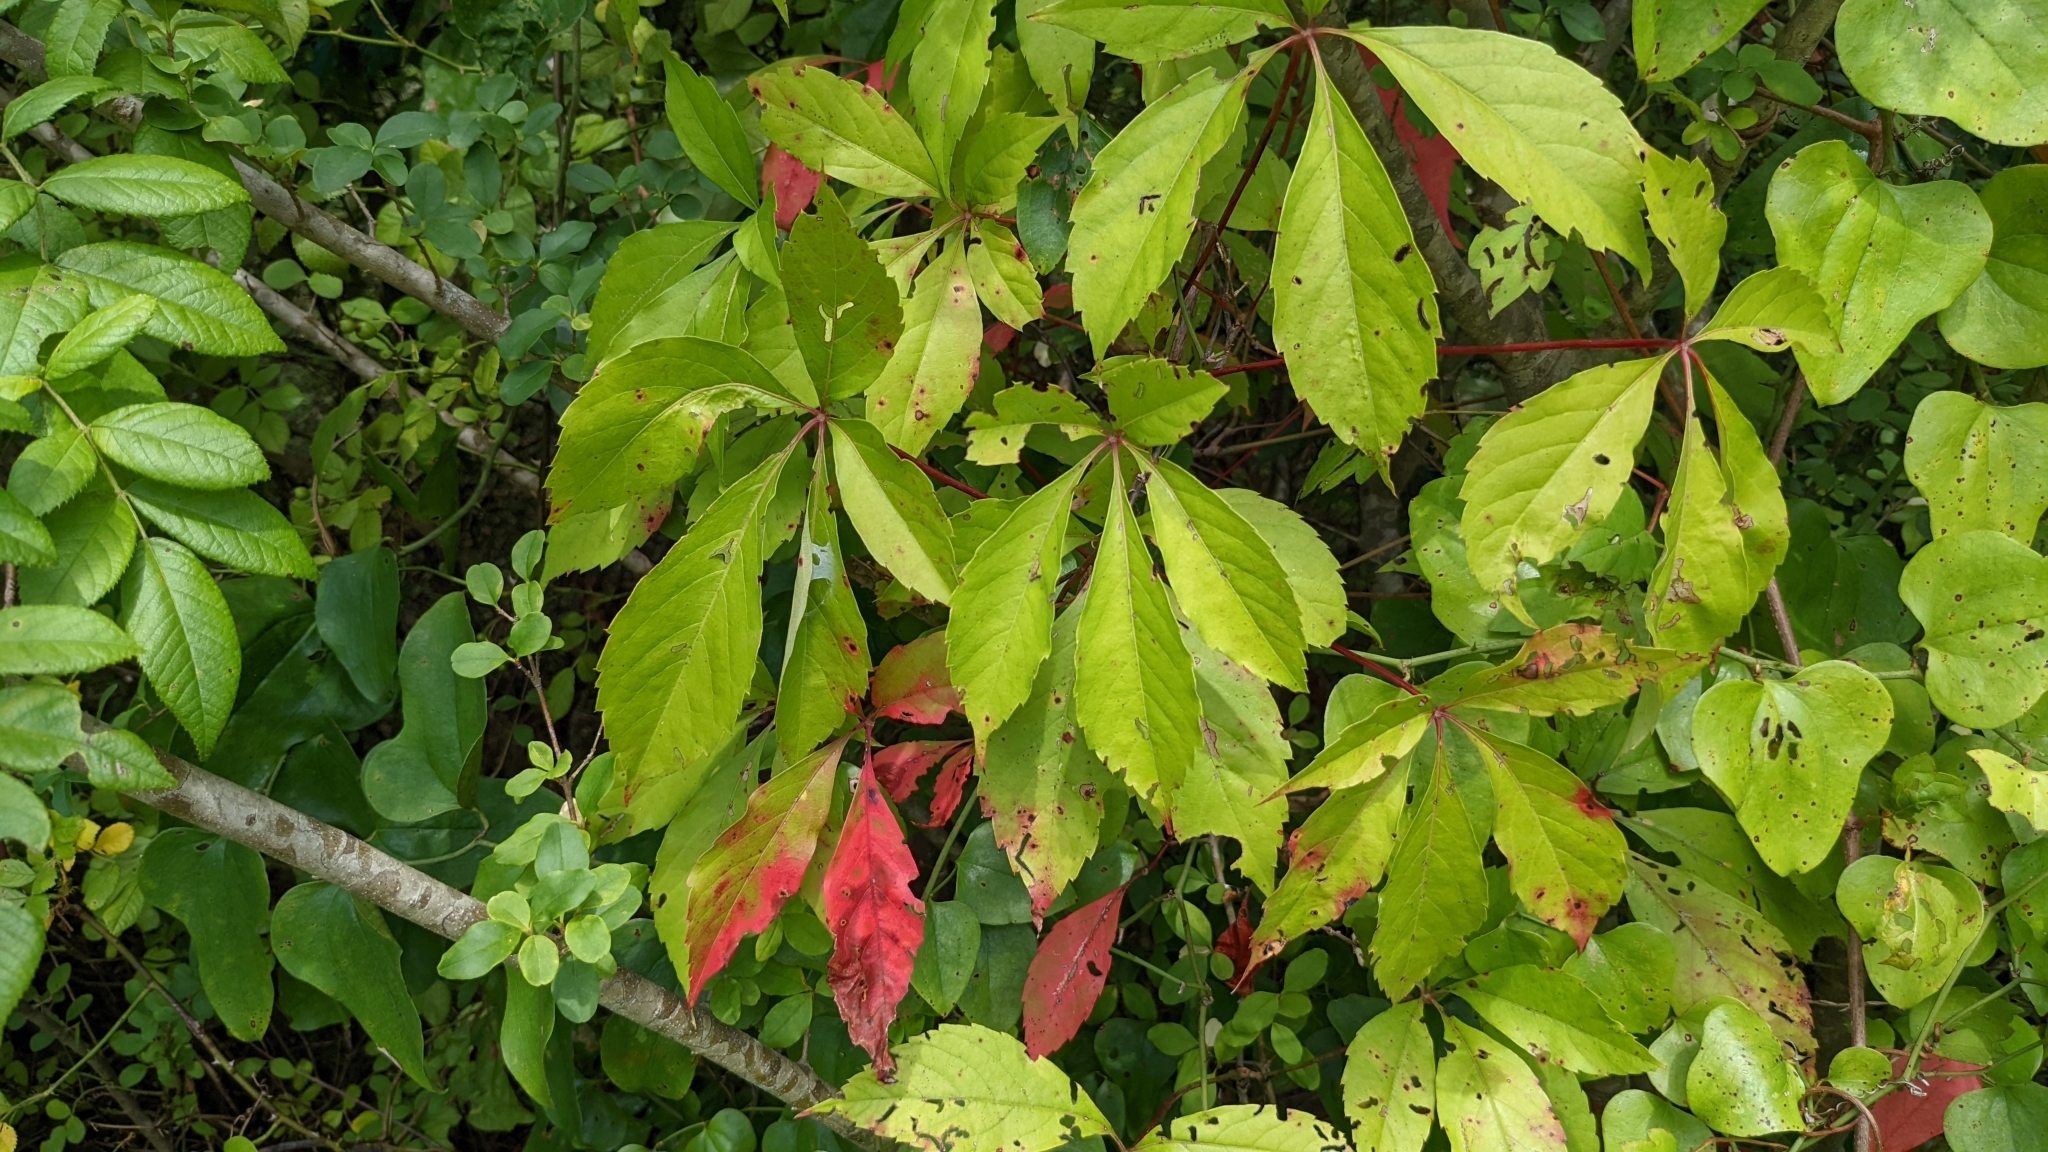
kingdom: Plantae
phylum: Tracheophyta
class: Magnoliopsida
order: Vitales
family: Vitaceae
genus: Parthenocissus
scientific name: Parthenocissus quinquefolia
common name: Virginia-creeper
